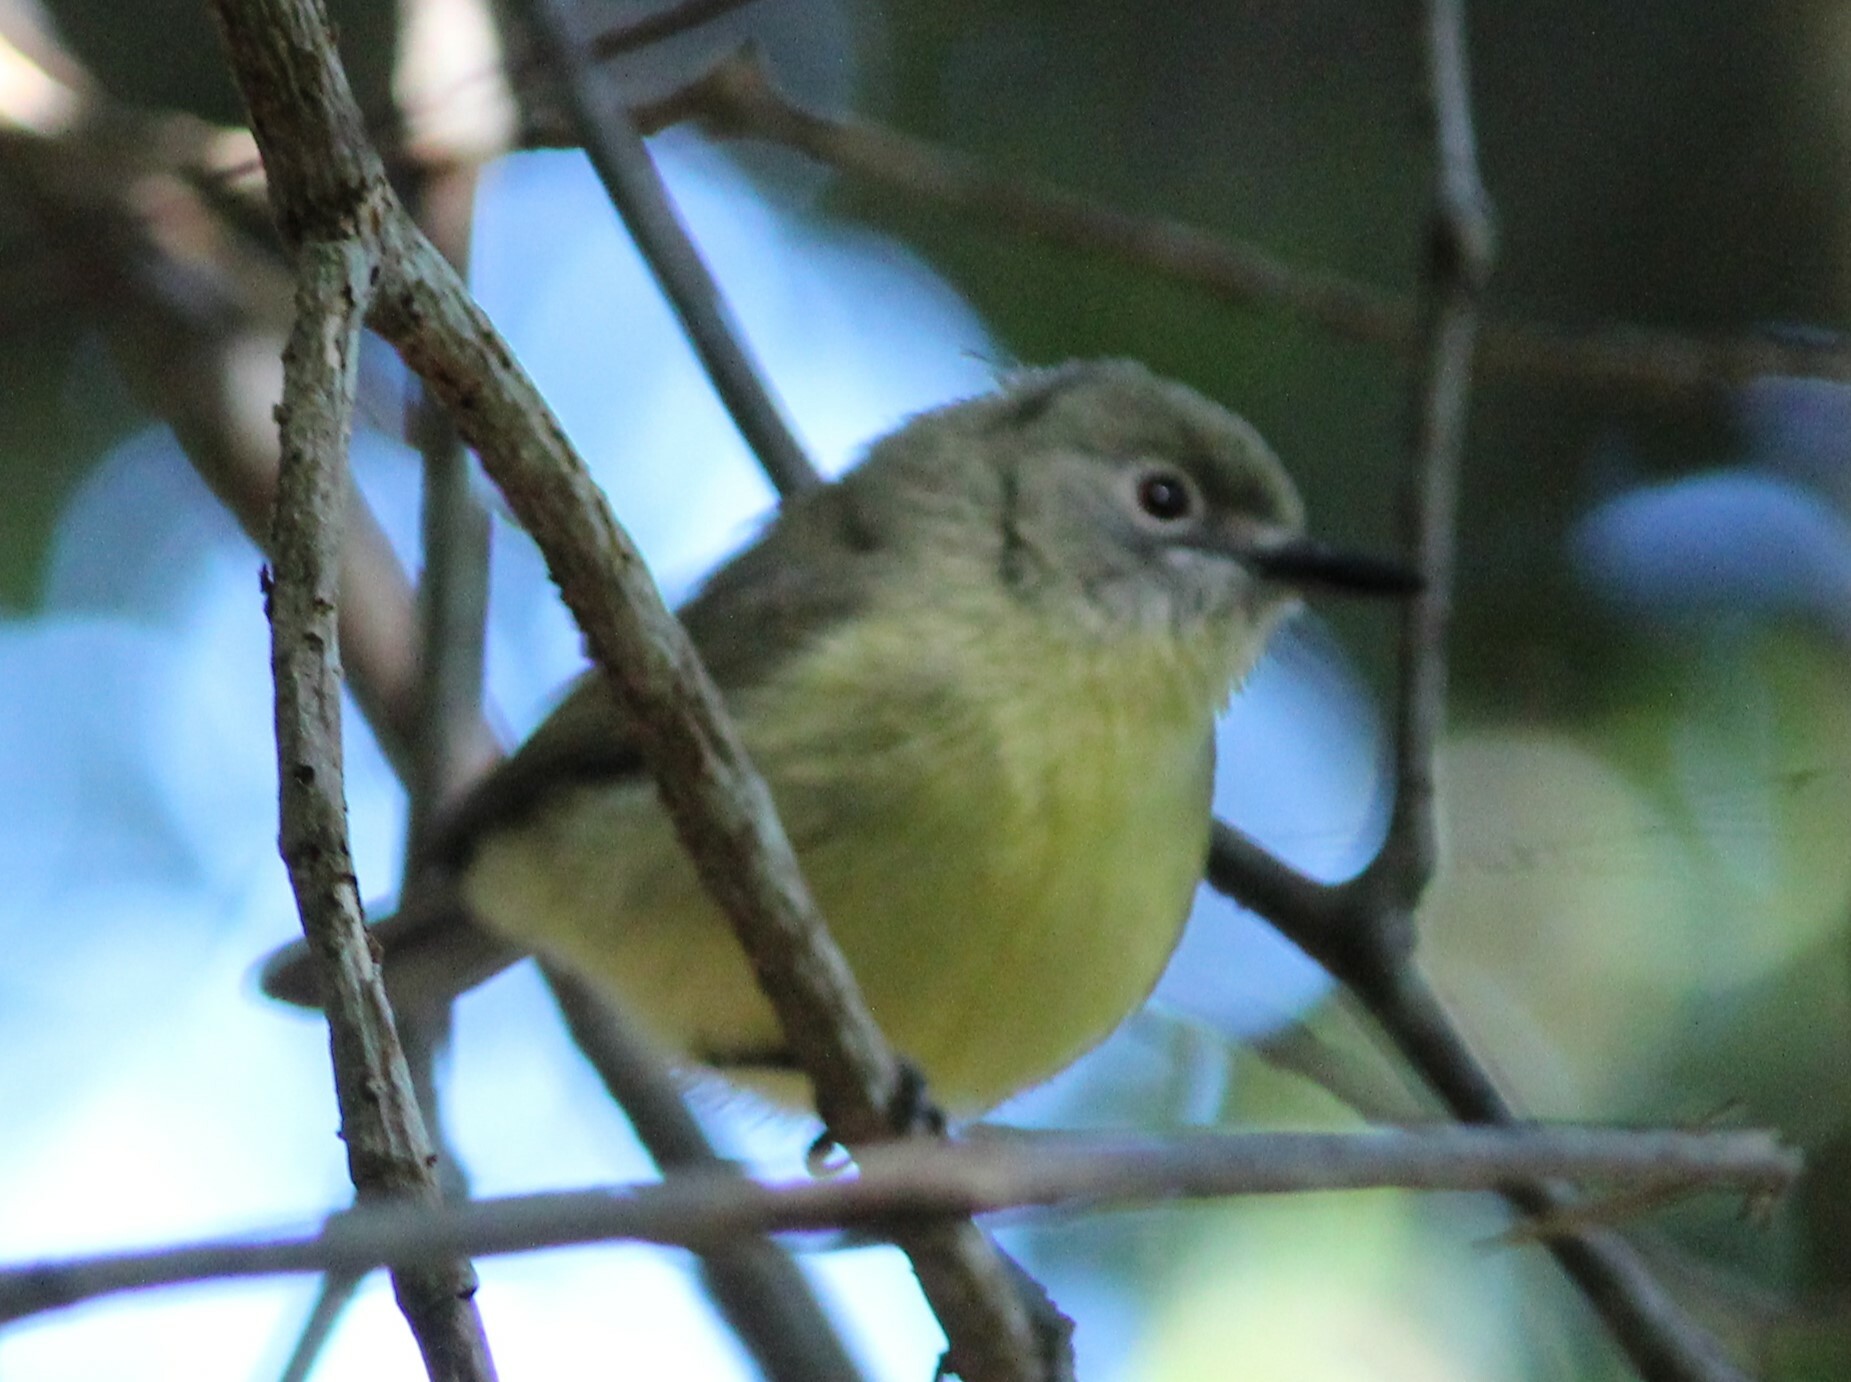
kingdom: Animalia
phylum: Chordata
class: Aves
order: Passeriformes
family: Acanthizidae
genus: Gerygone
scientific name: Gerygone palpebrosa
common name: Fairy gerygone
